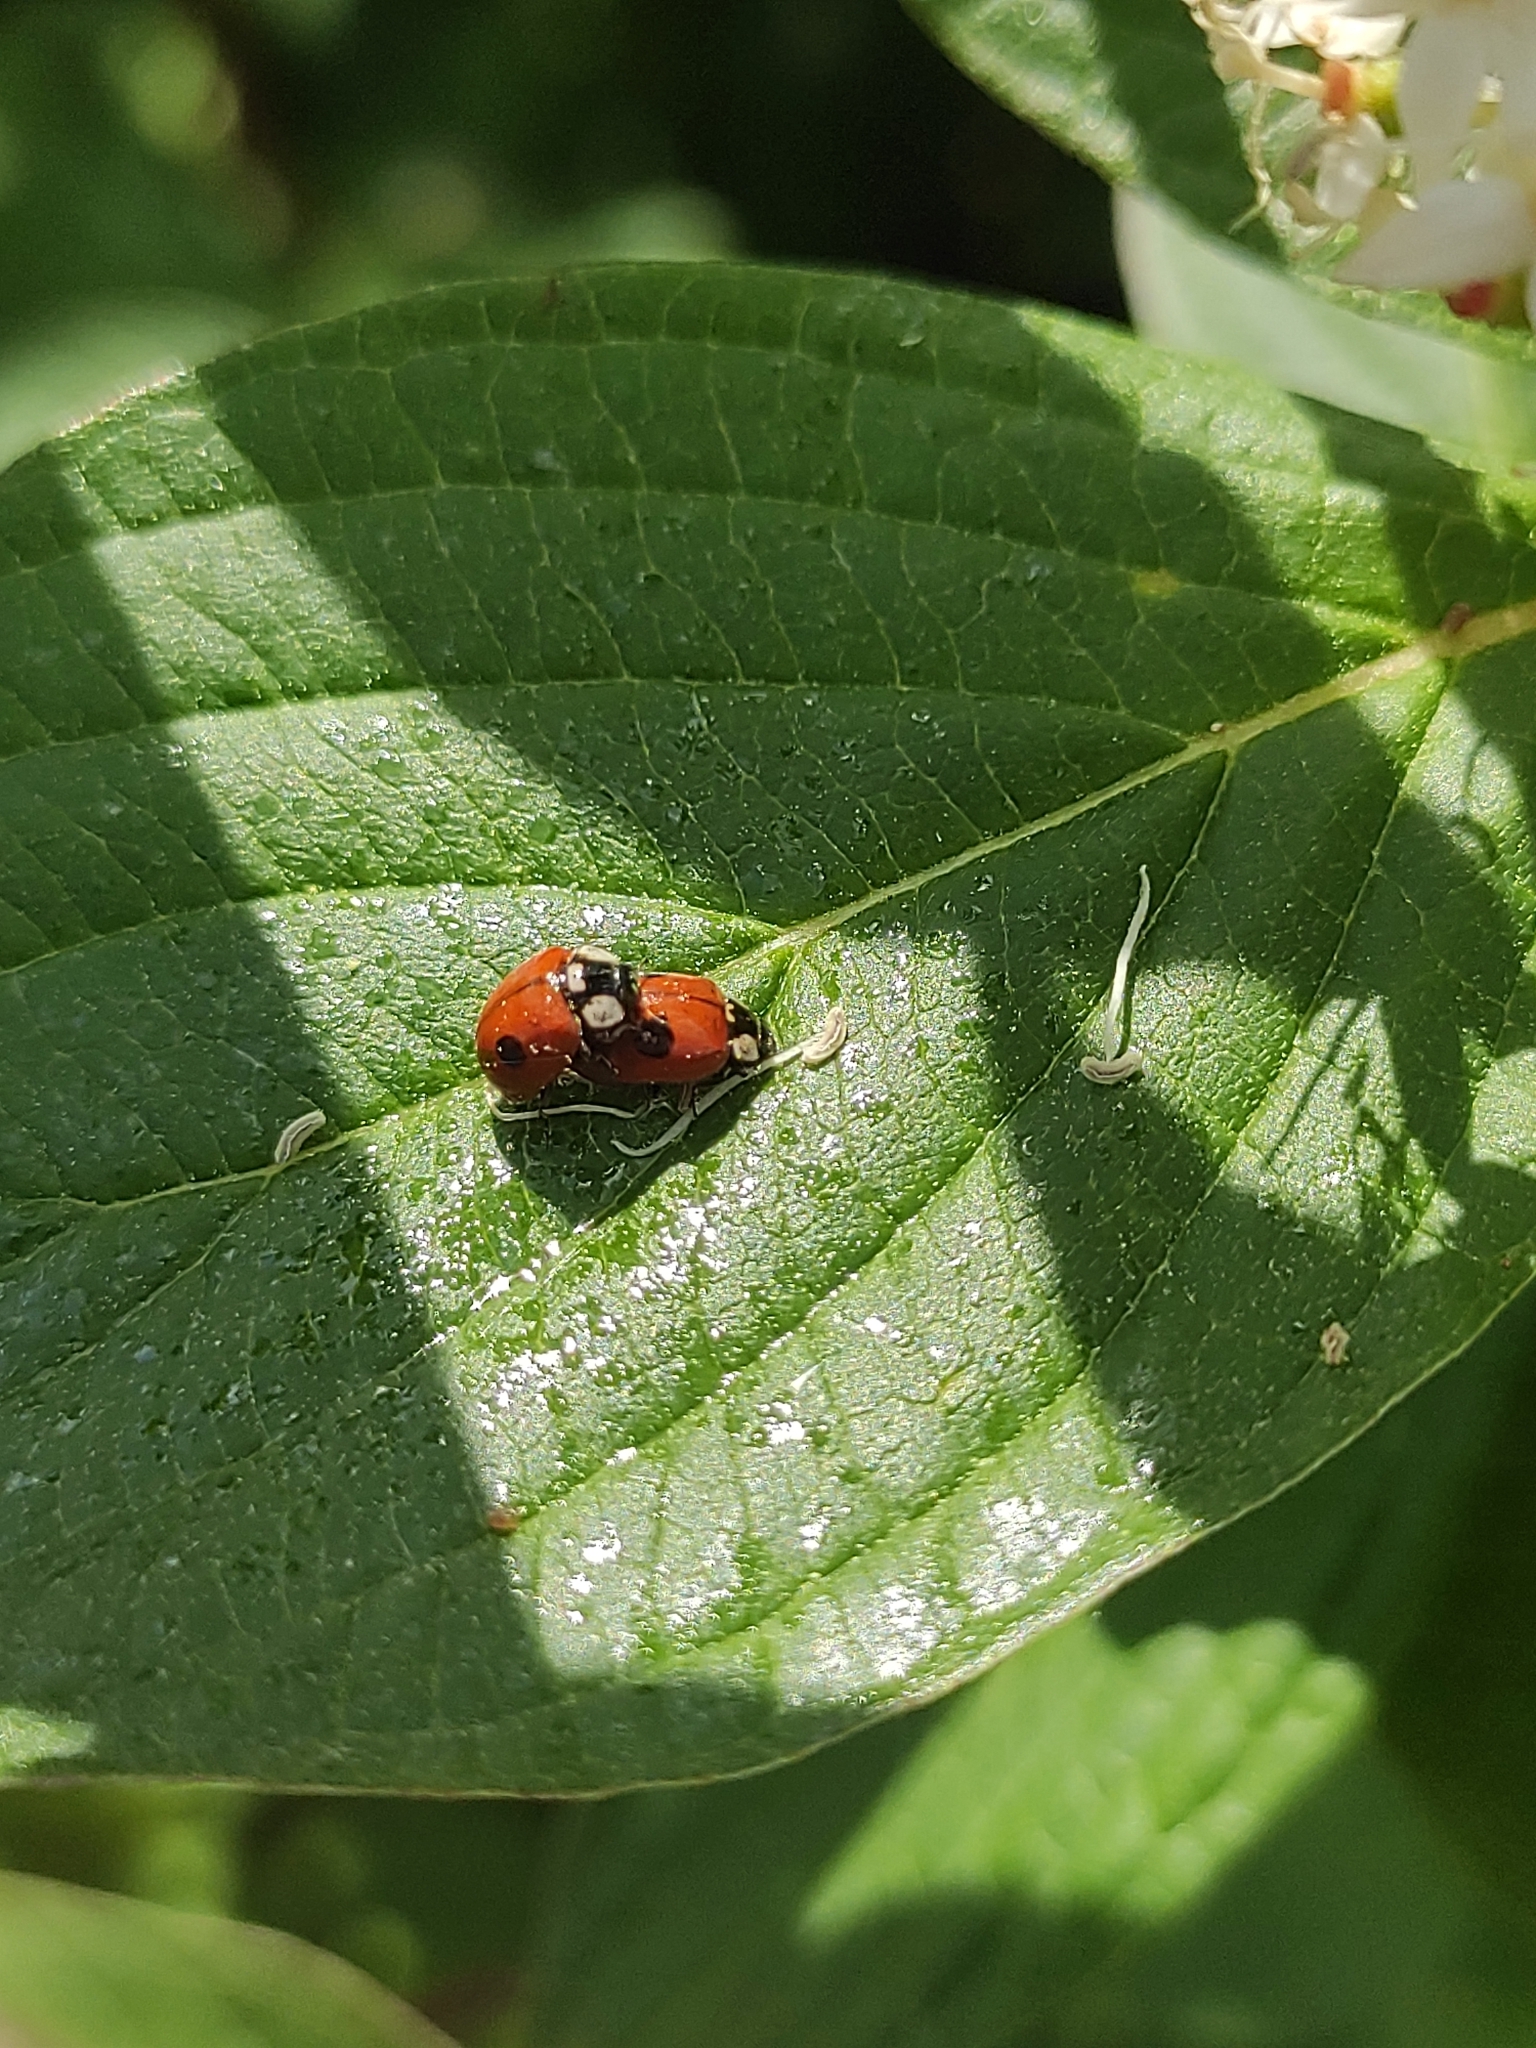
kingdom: Animalia
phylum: Arthropoda
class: Insecta
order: Coleoptera
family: Coccinellidae
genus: Adalia
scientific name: Adalia bipunctata
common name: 2-spot ladybird
